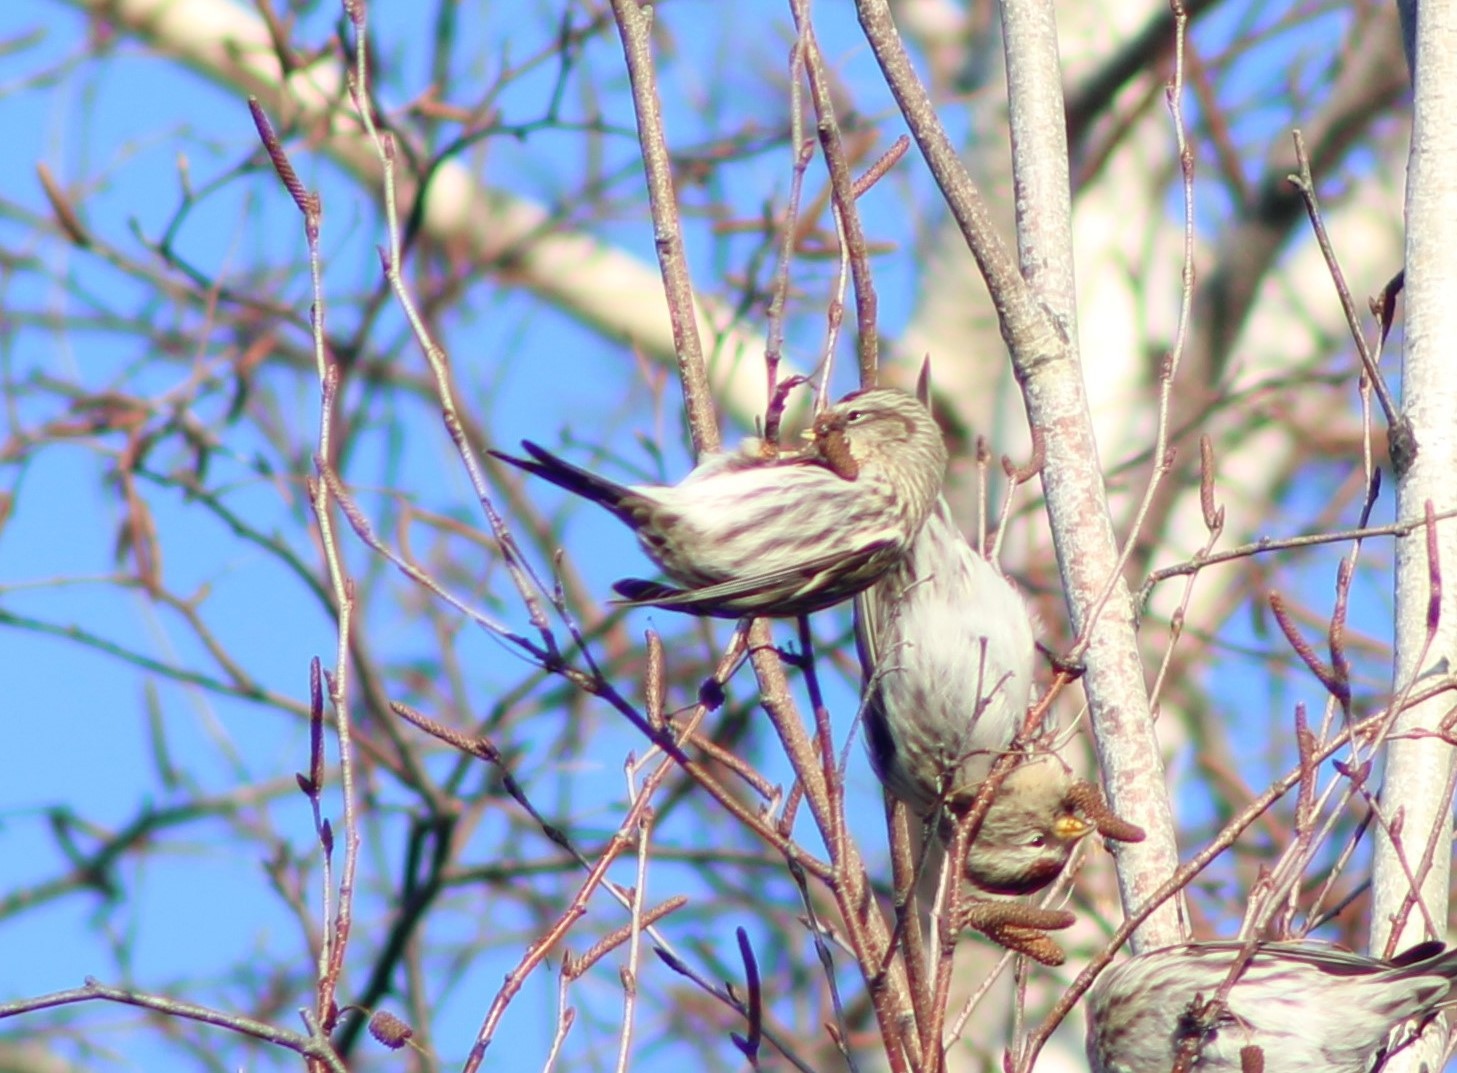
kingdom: Animalia
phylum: Chordata
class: Aves
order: Passeriformes
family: Fringillidae
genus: Acanthis
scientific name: Acanthis flammea
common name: Common redpoll
